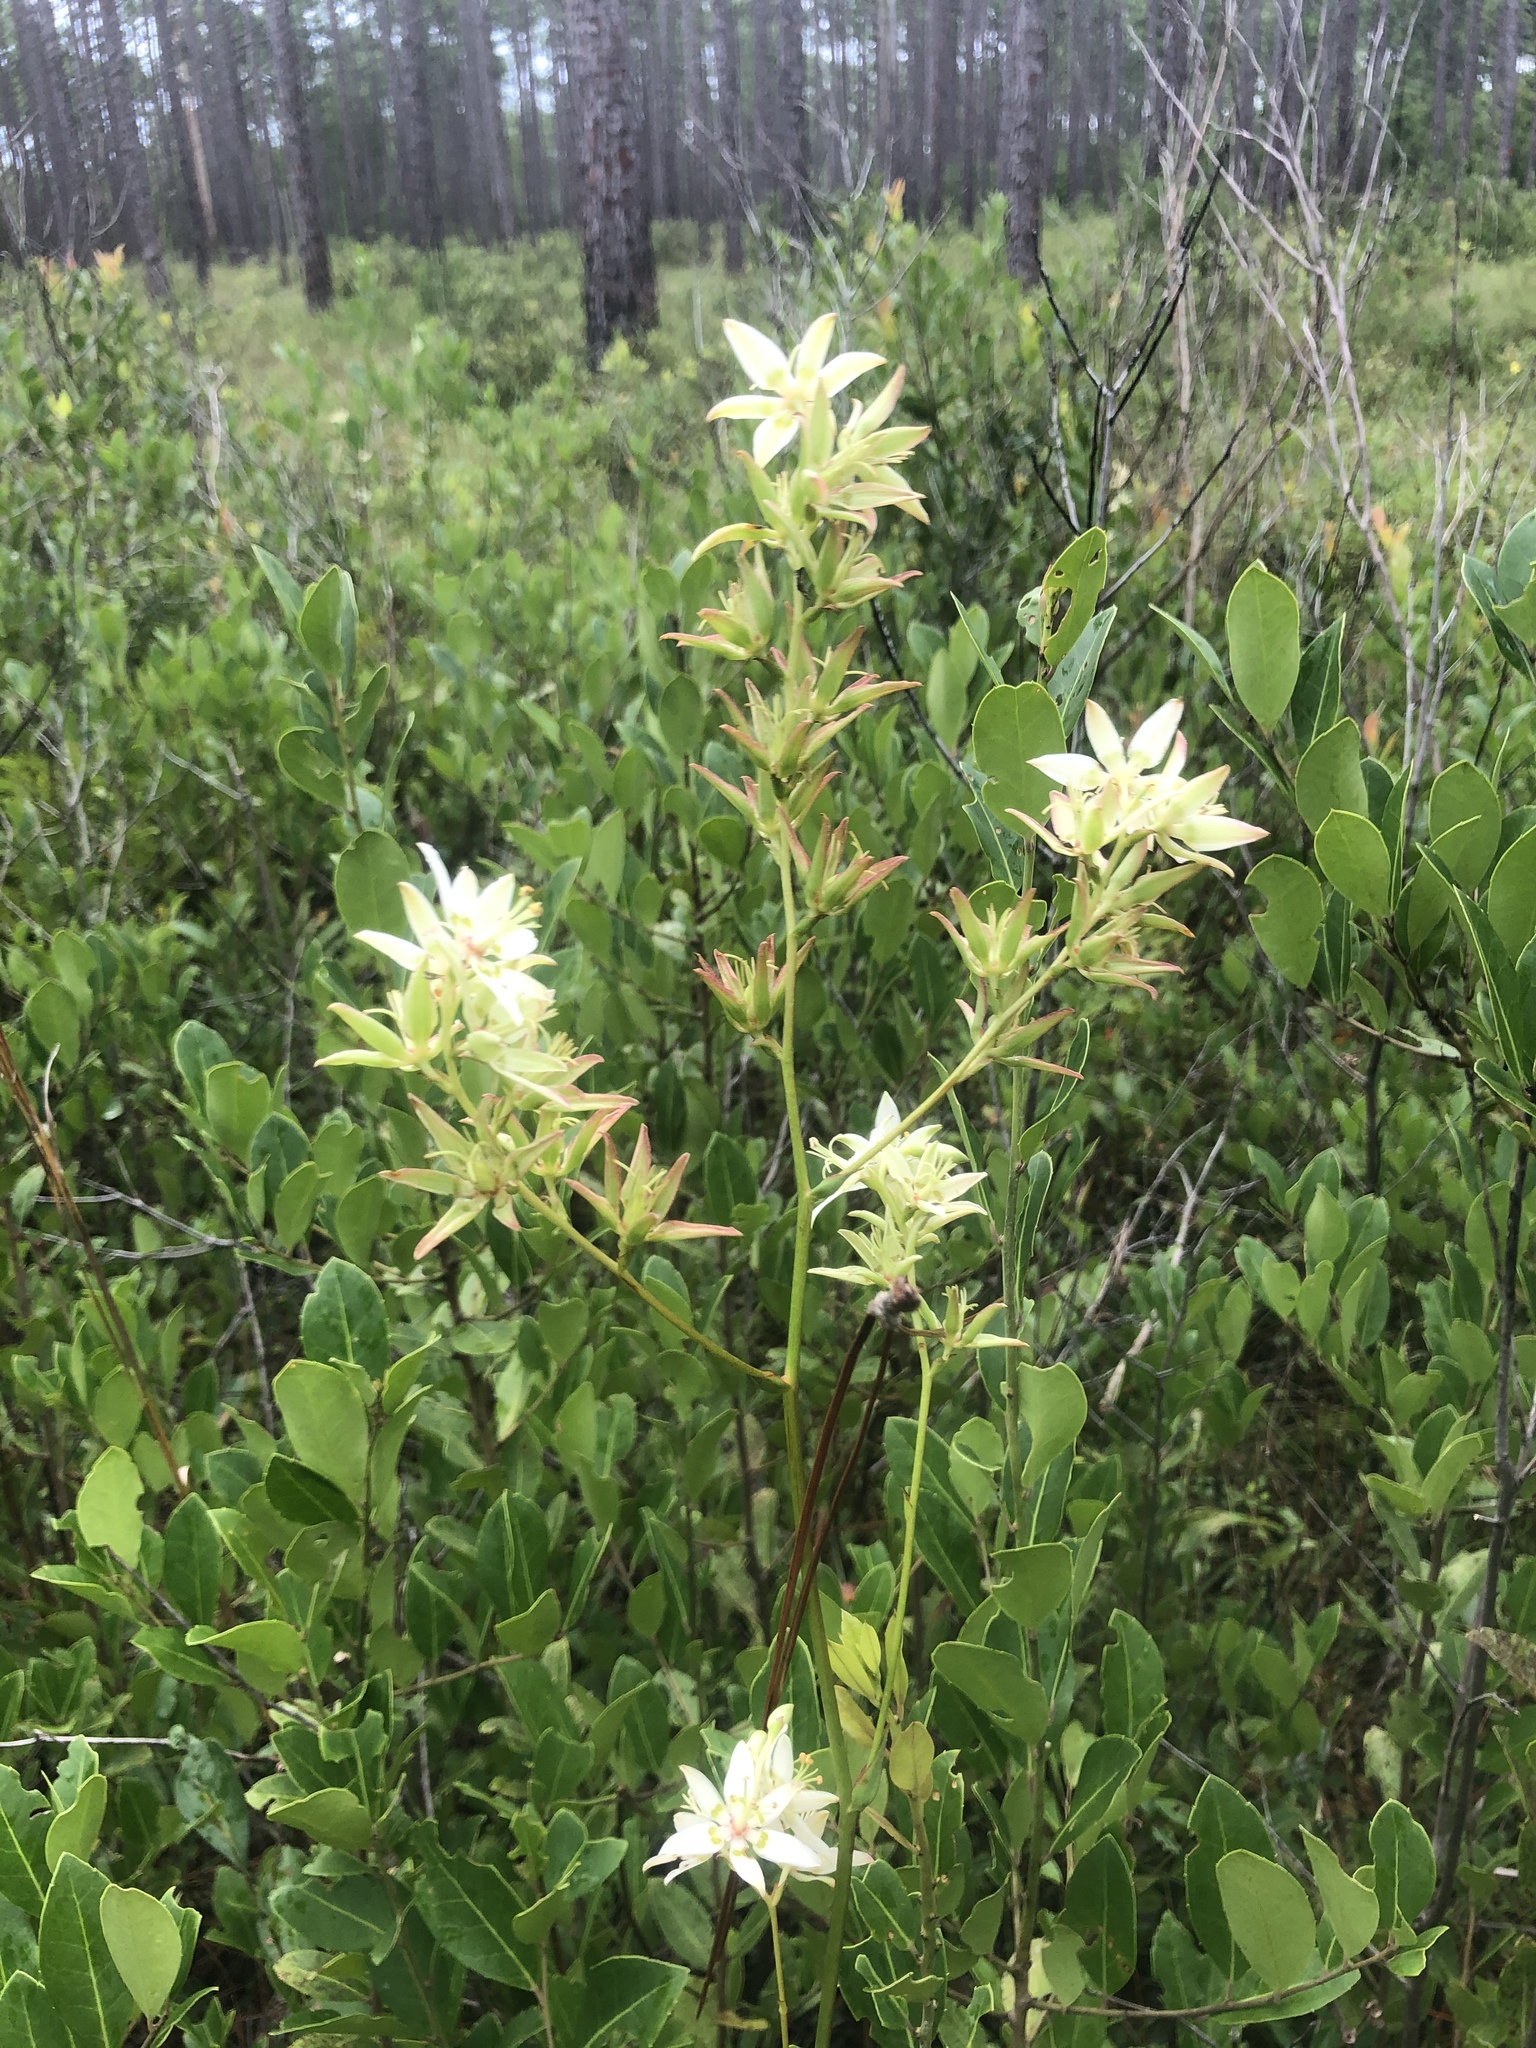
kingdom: Plantae
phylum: Tracheophyta
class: Liliopsida
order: Liliales
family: Melanthiaceae
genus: Zigadenus
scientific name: Zigadenus glaberrimus
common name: Sandbog death camas
